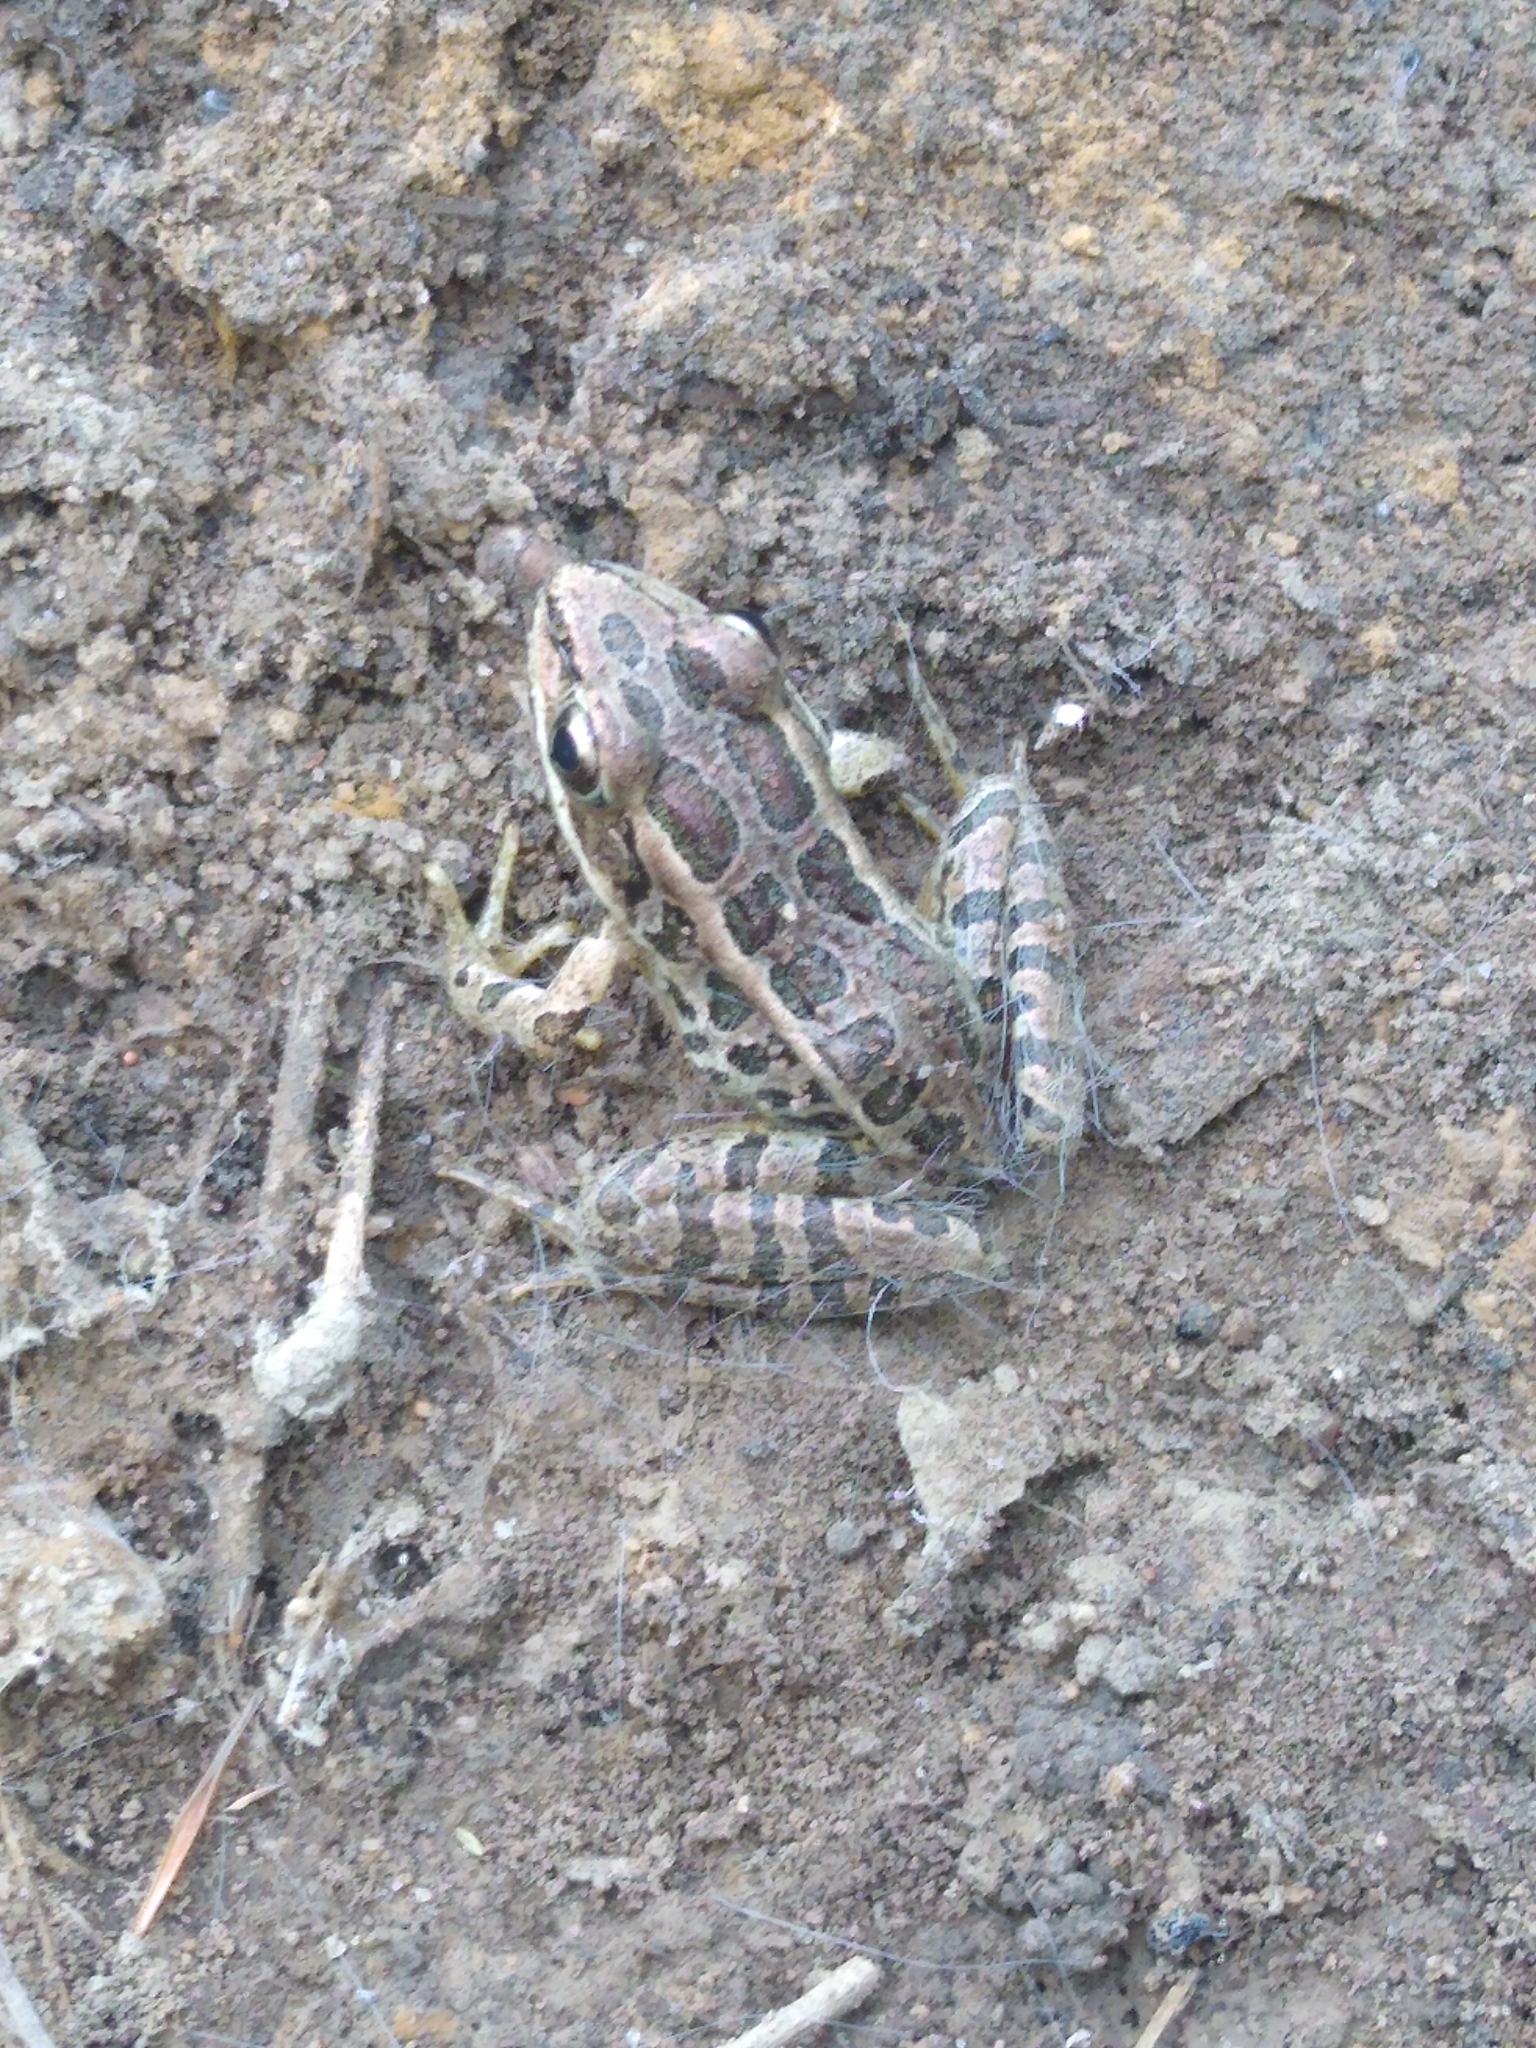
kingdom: Animalia
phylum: Chordata
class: Amphibia
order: Anura
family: Ranidae
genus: Lithobates
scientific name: Lithobates palustris
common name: Pickerel frog
